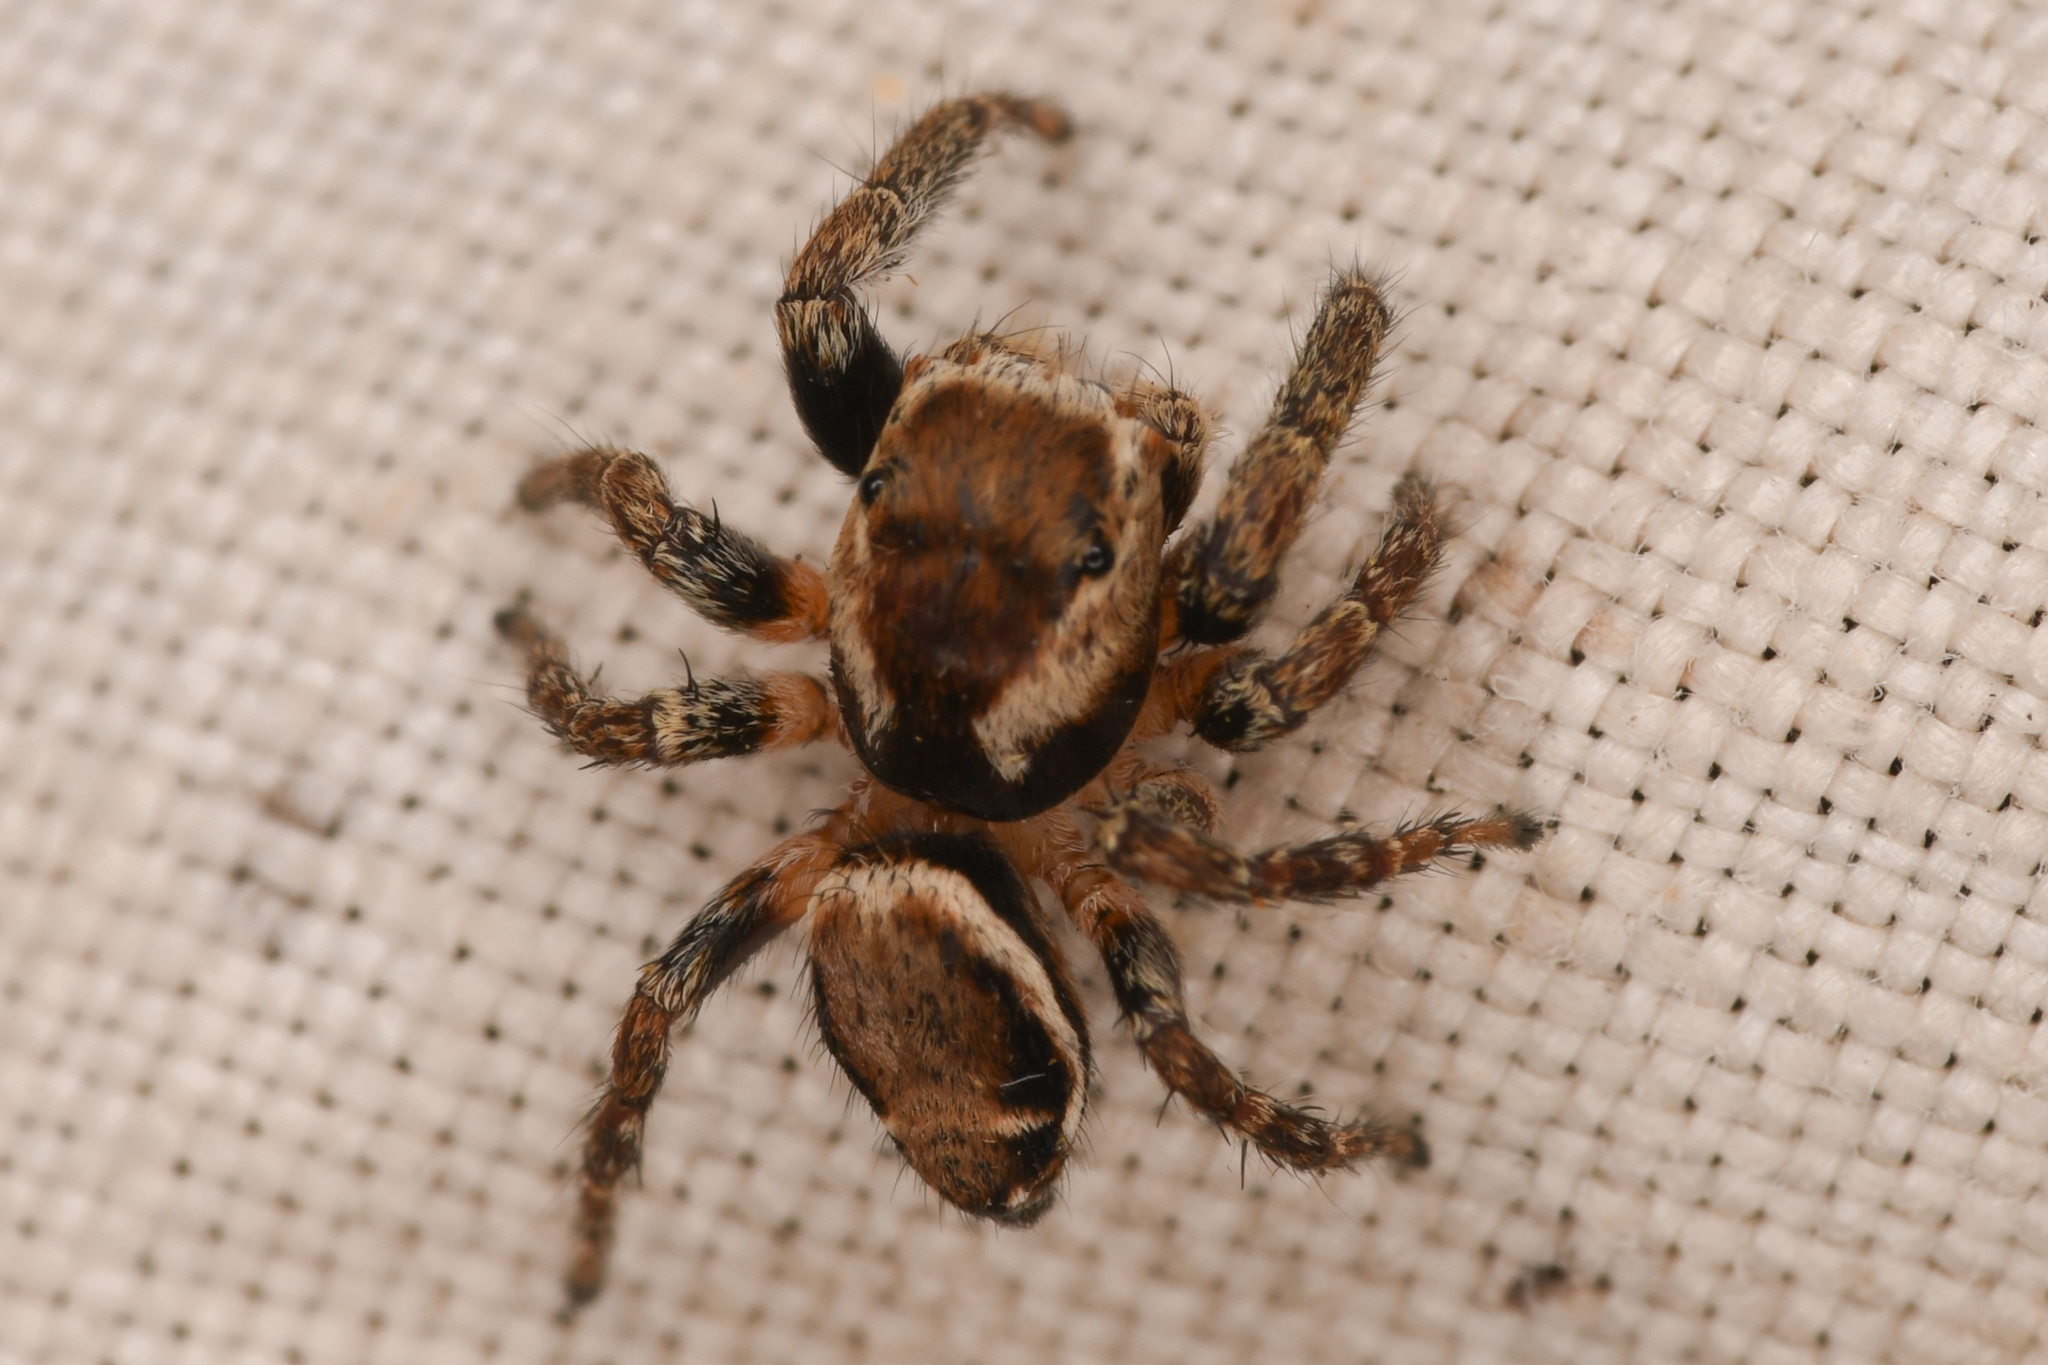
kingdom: Animalia
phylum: Arthropoda
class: Arachnida
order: Araneae
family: Salticidae
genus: Evarcha
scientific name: Evarcha proszynskii
